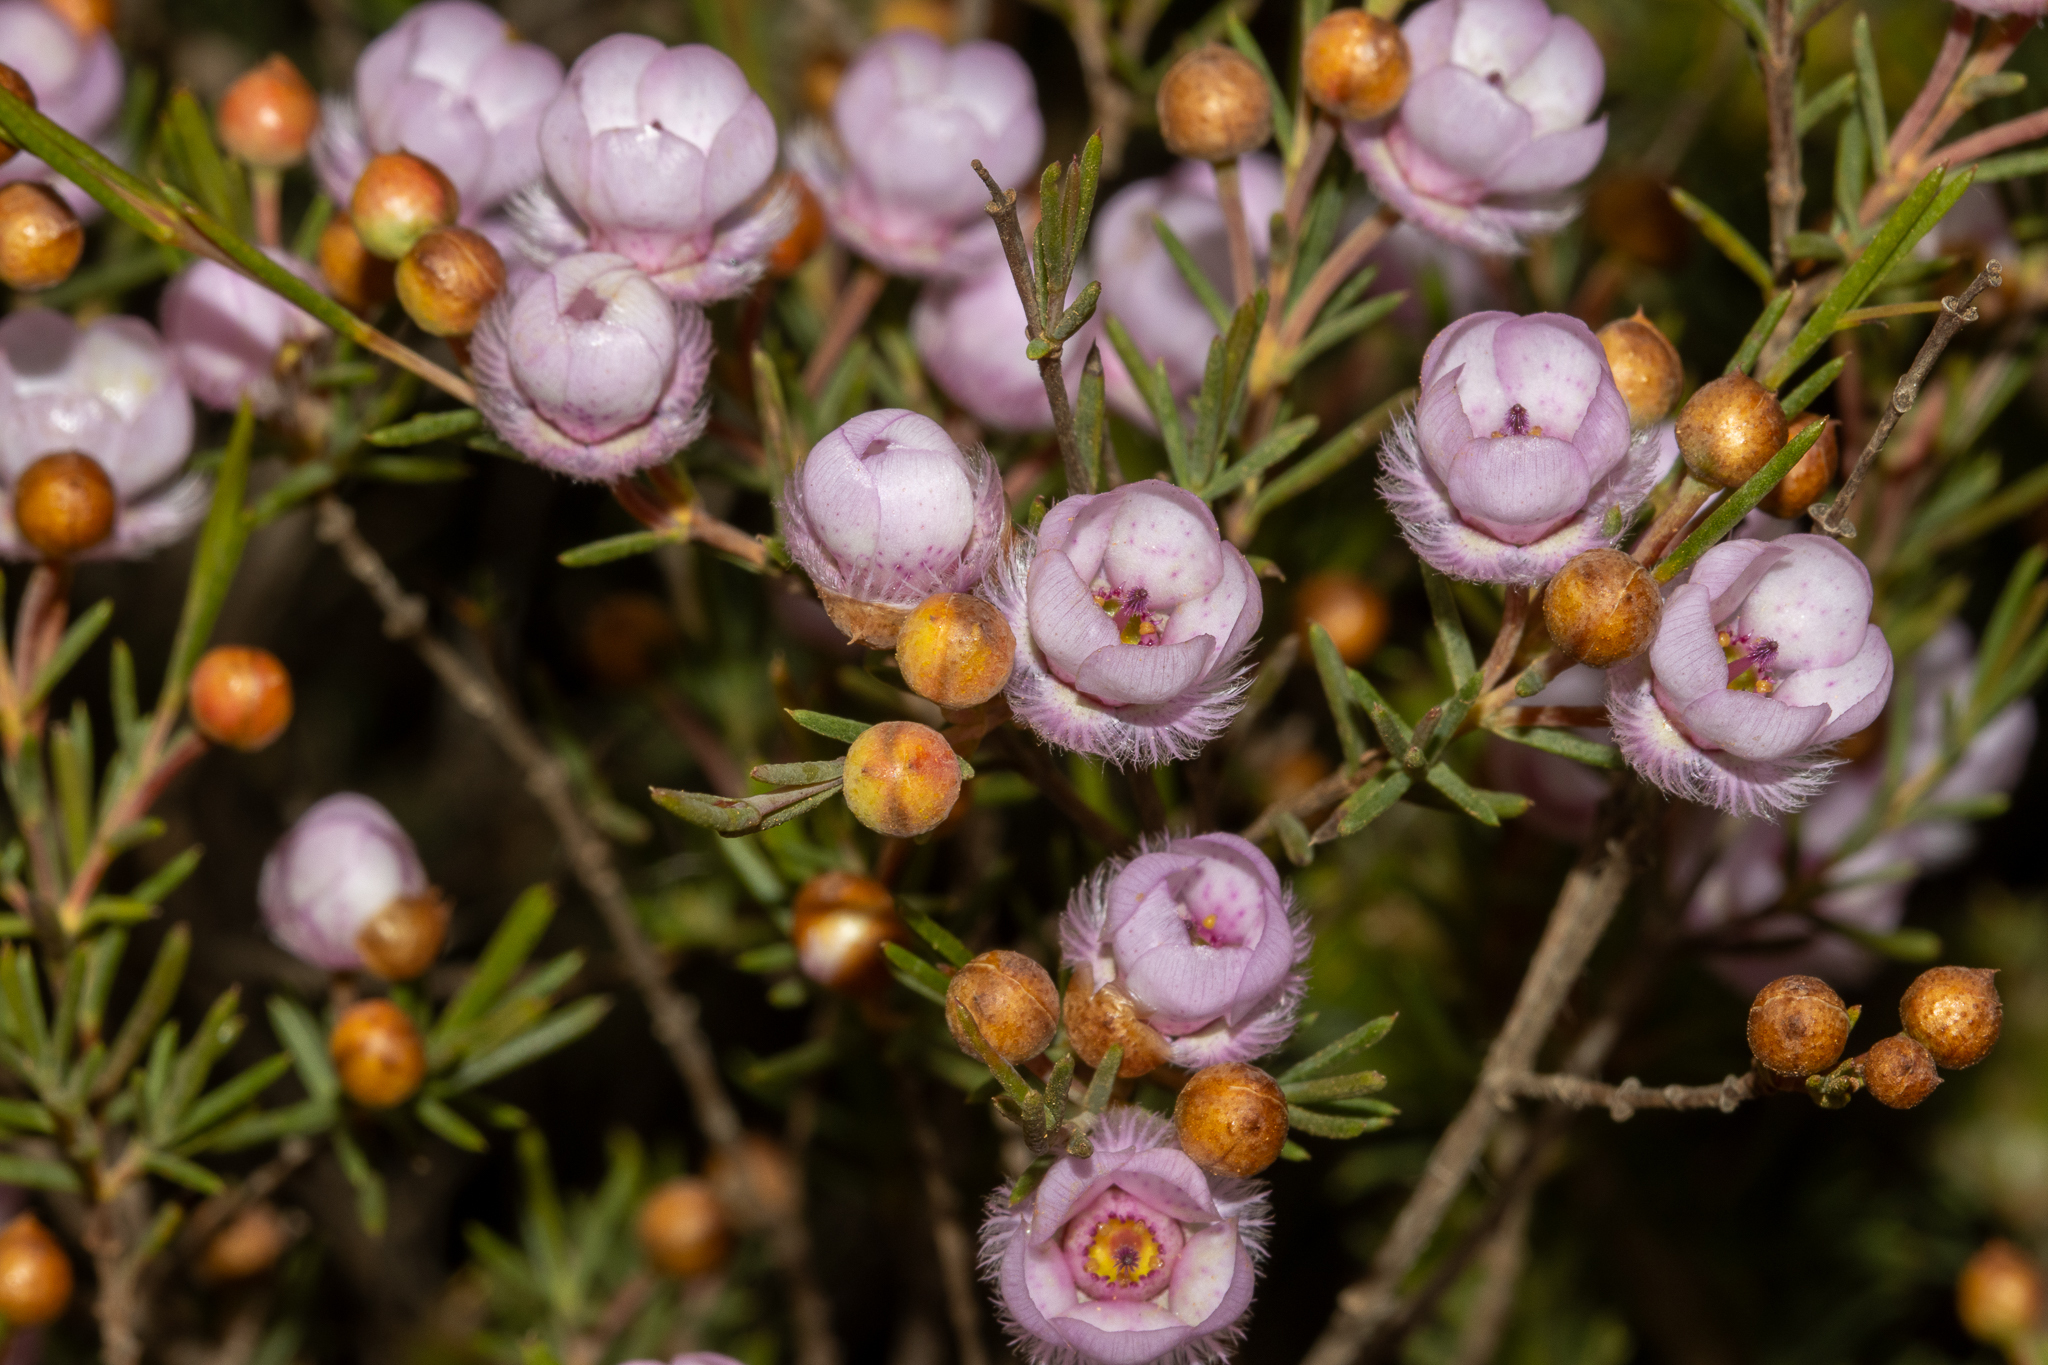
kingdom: Plantae
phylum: Tracheophyta
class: Magnoliopsida
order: Myrtales
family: Myrtaceae
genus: Verticordia
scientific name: Verticordia picta
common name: Painted feather-flower
